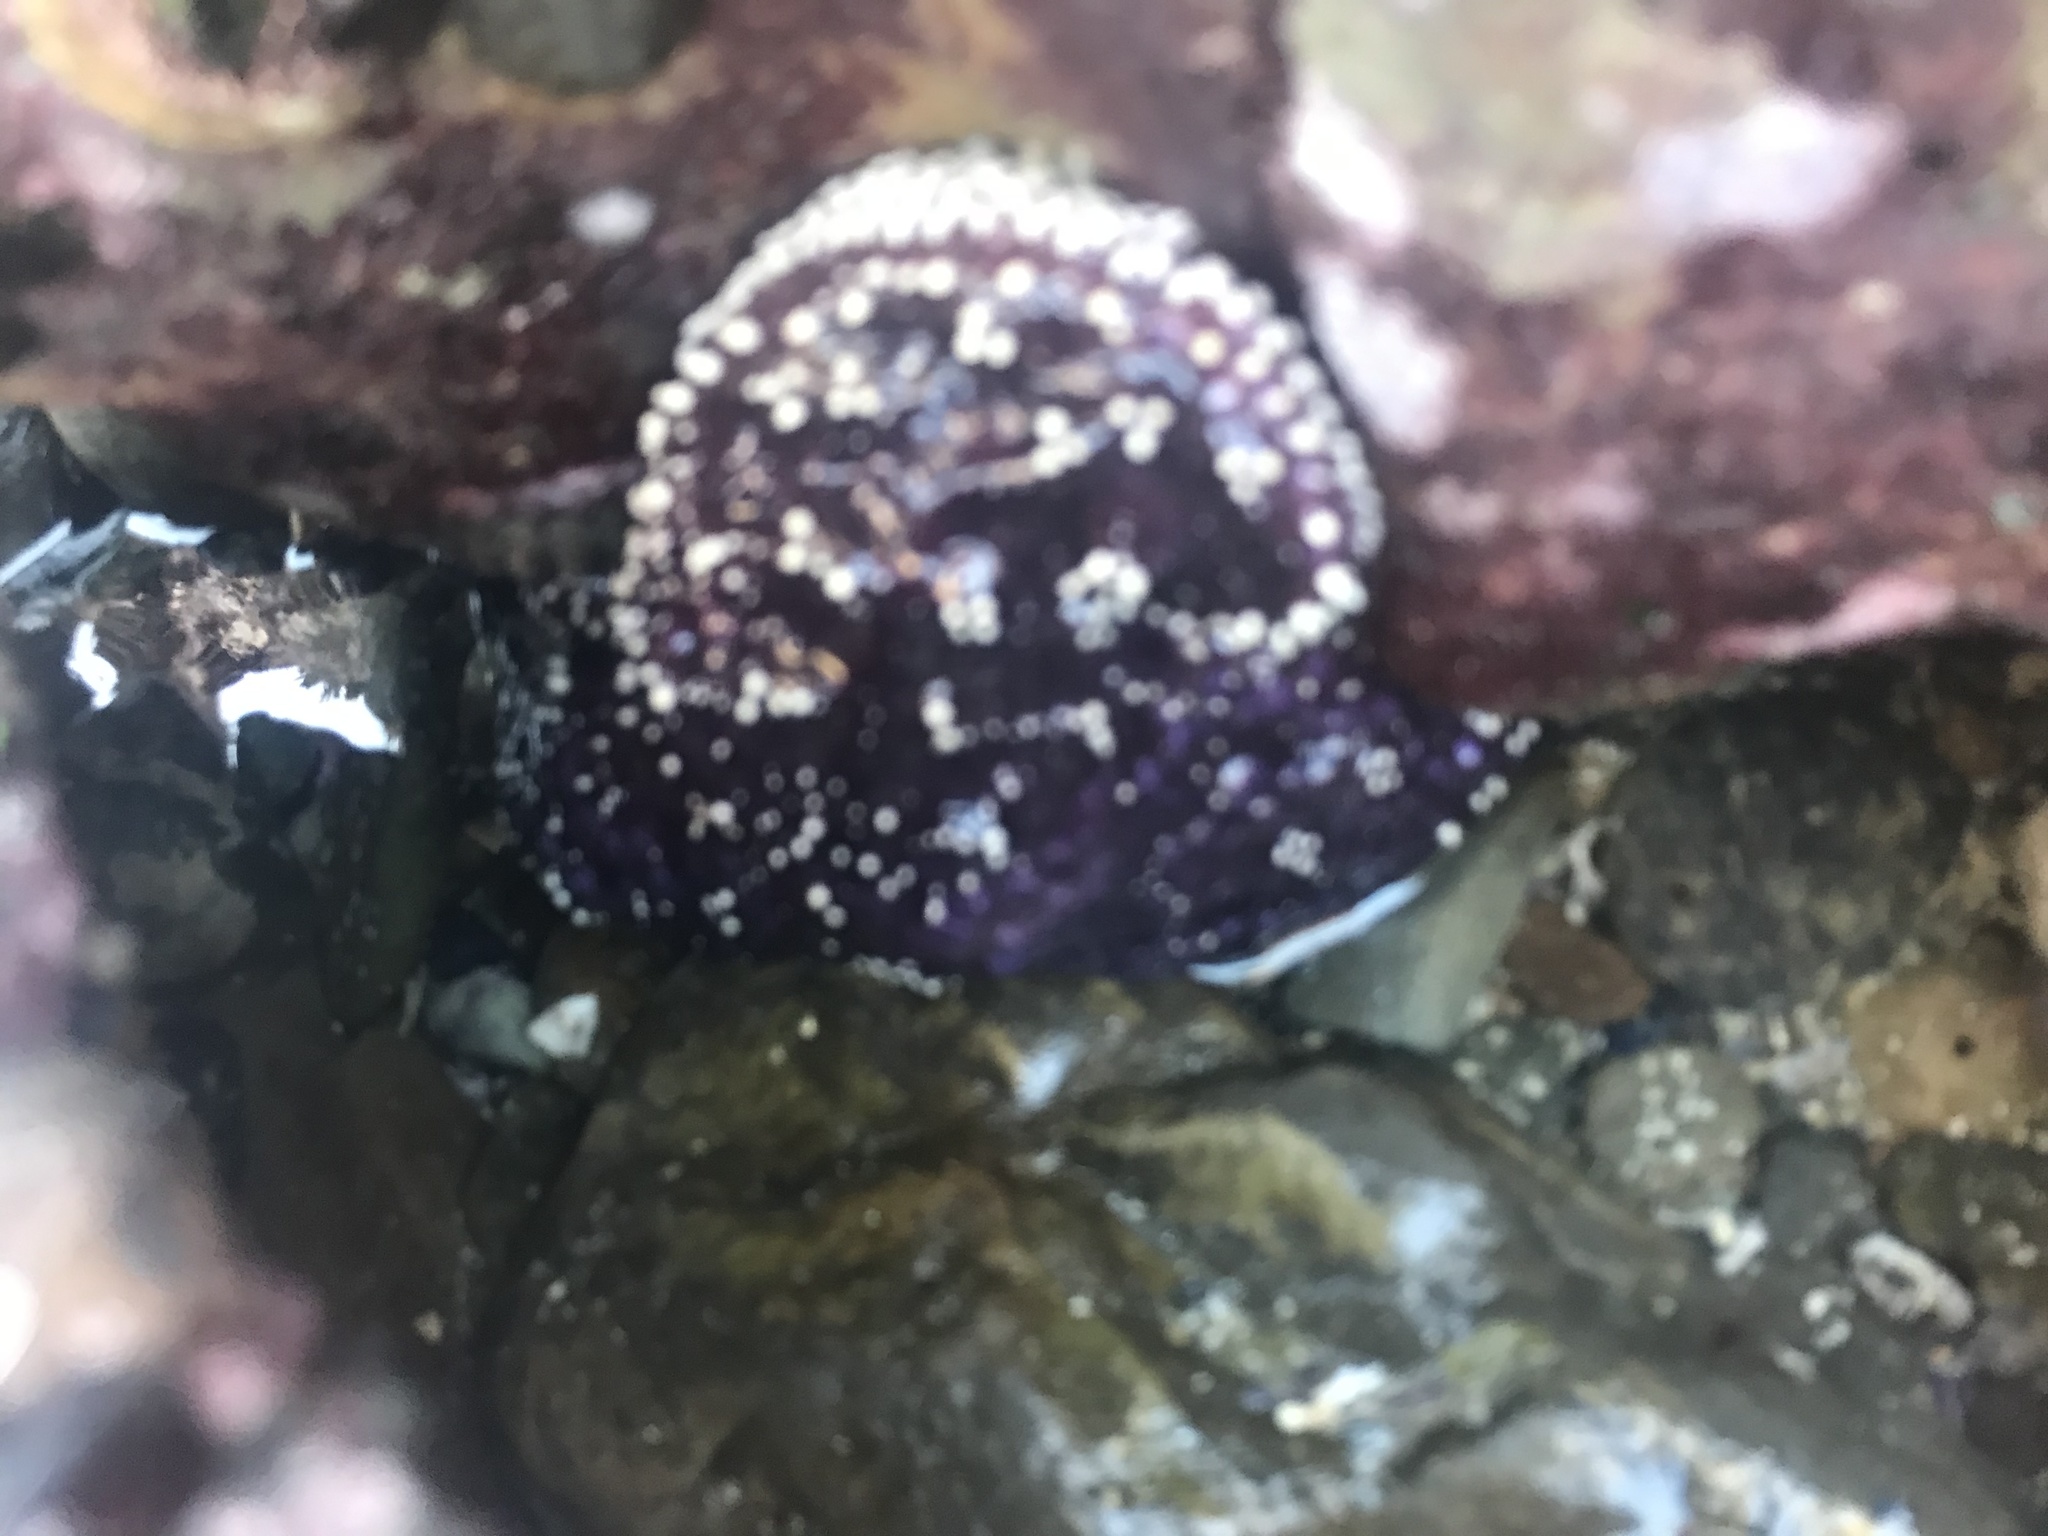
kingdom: Animalia
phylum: Echinodermata
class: Asteroidea
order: Forcipulatida
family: Asteriidae
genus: Pisaster
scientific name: Pisaster ochraceus
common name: Ochre stars
